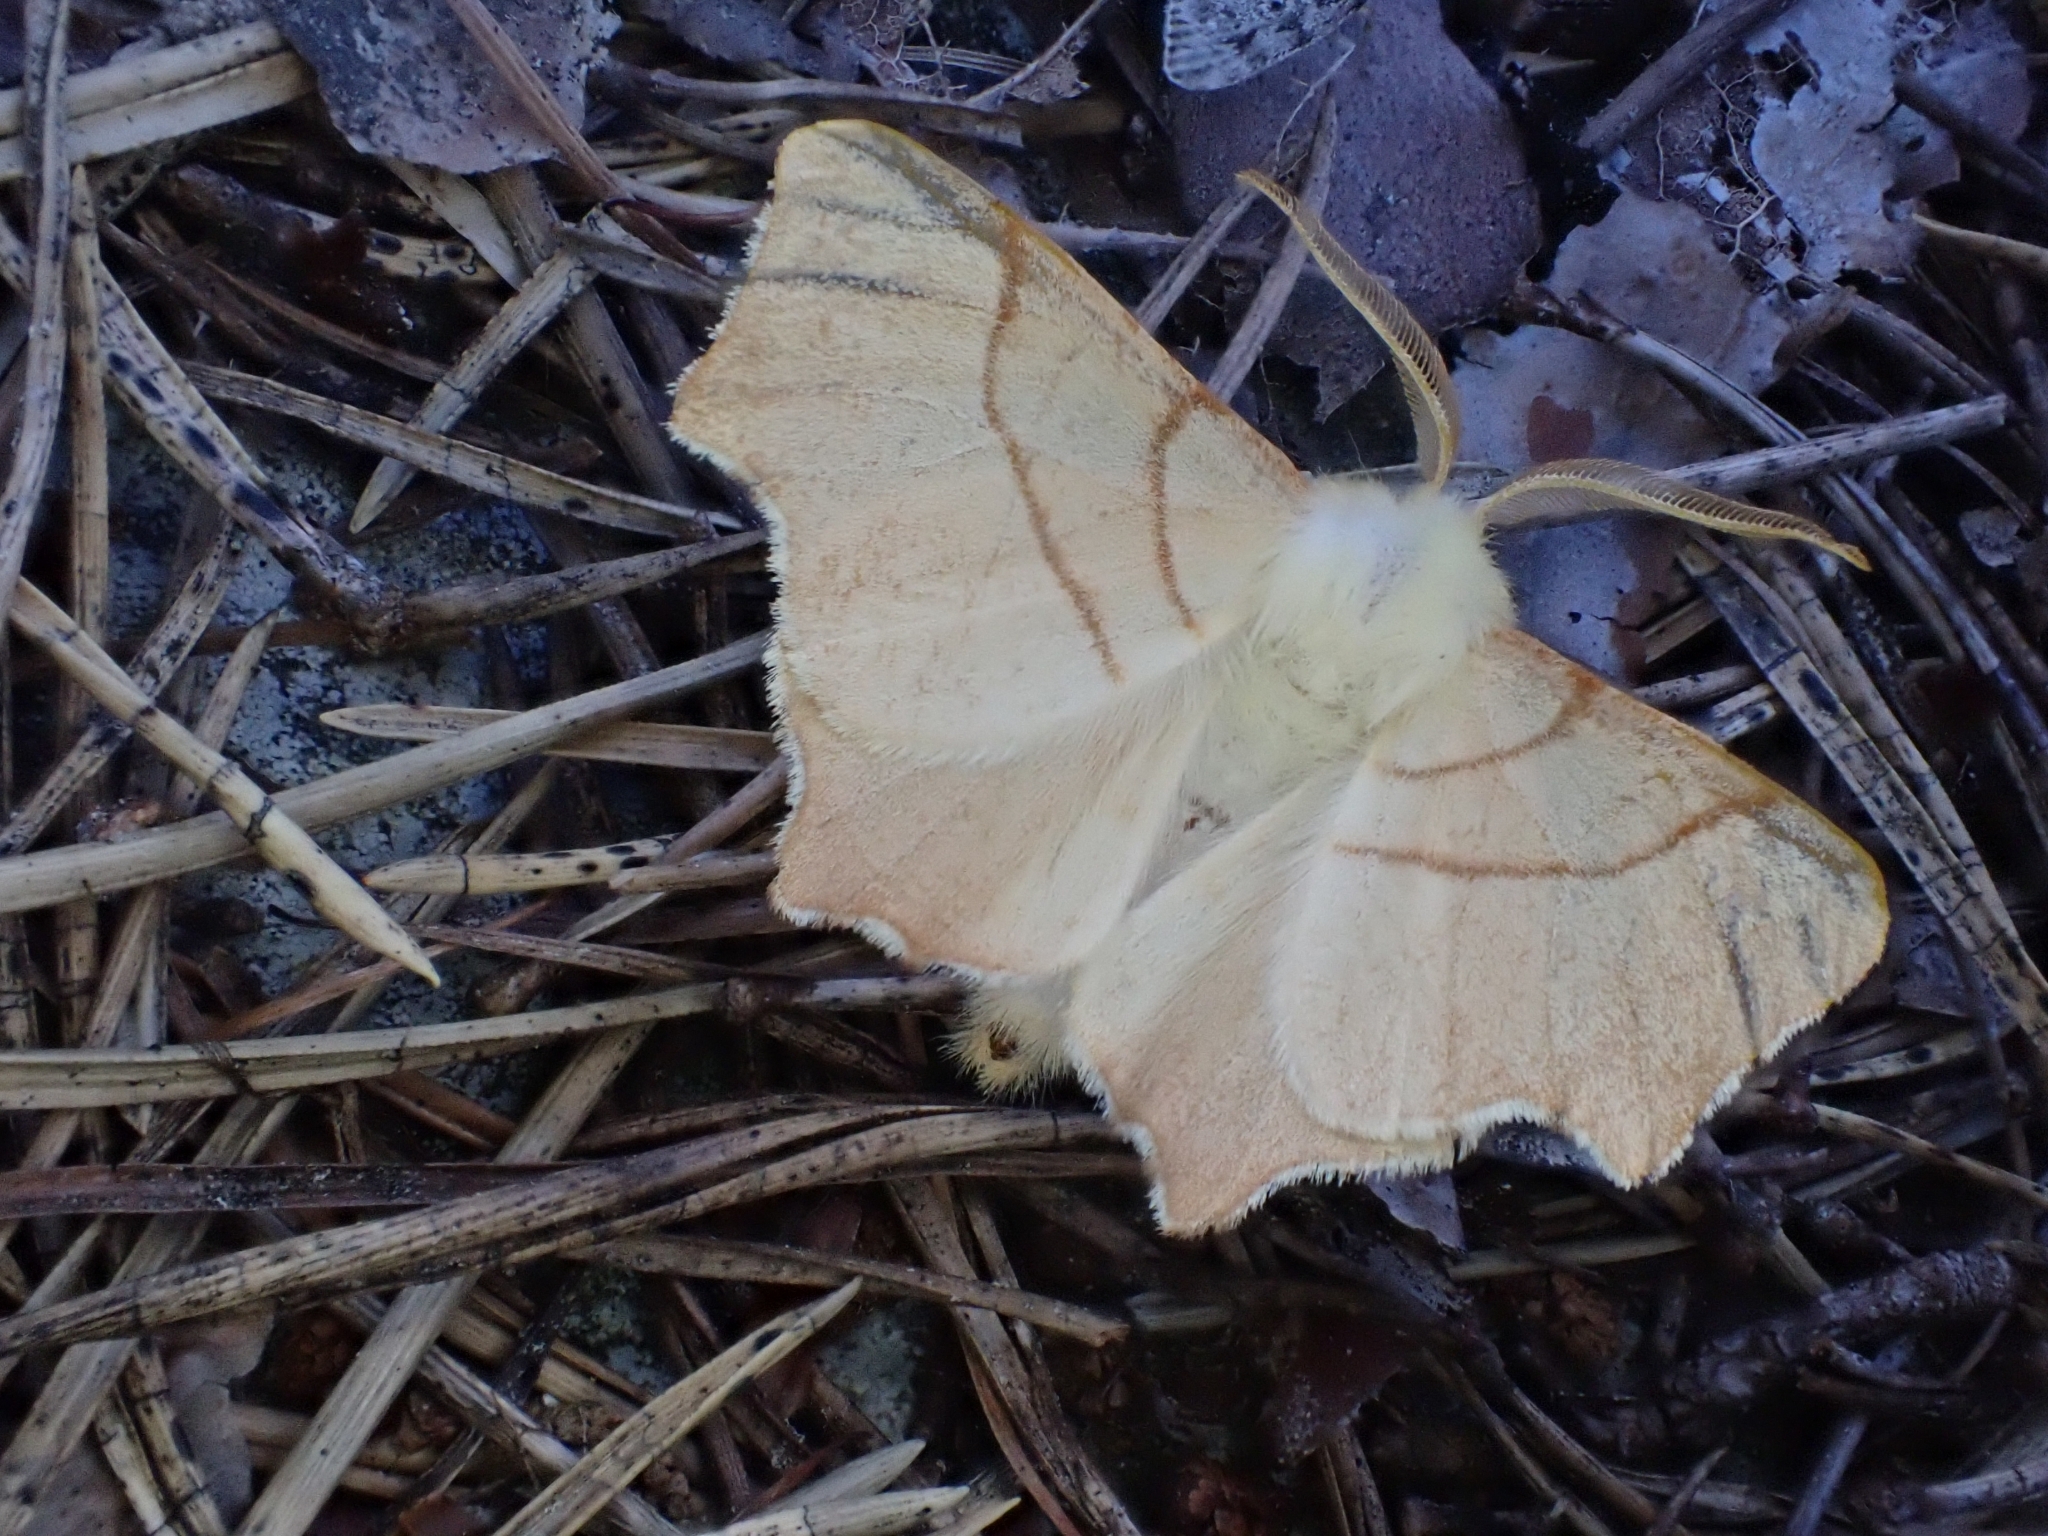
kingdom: Animalia
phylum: Arthropoda
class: Insecta
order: Lepidoptera
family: Geometridae
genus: Ennomos
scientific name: Ennomos erosaria
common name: September thorn
